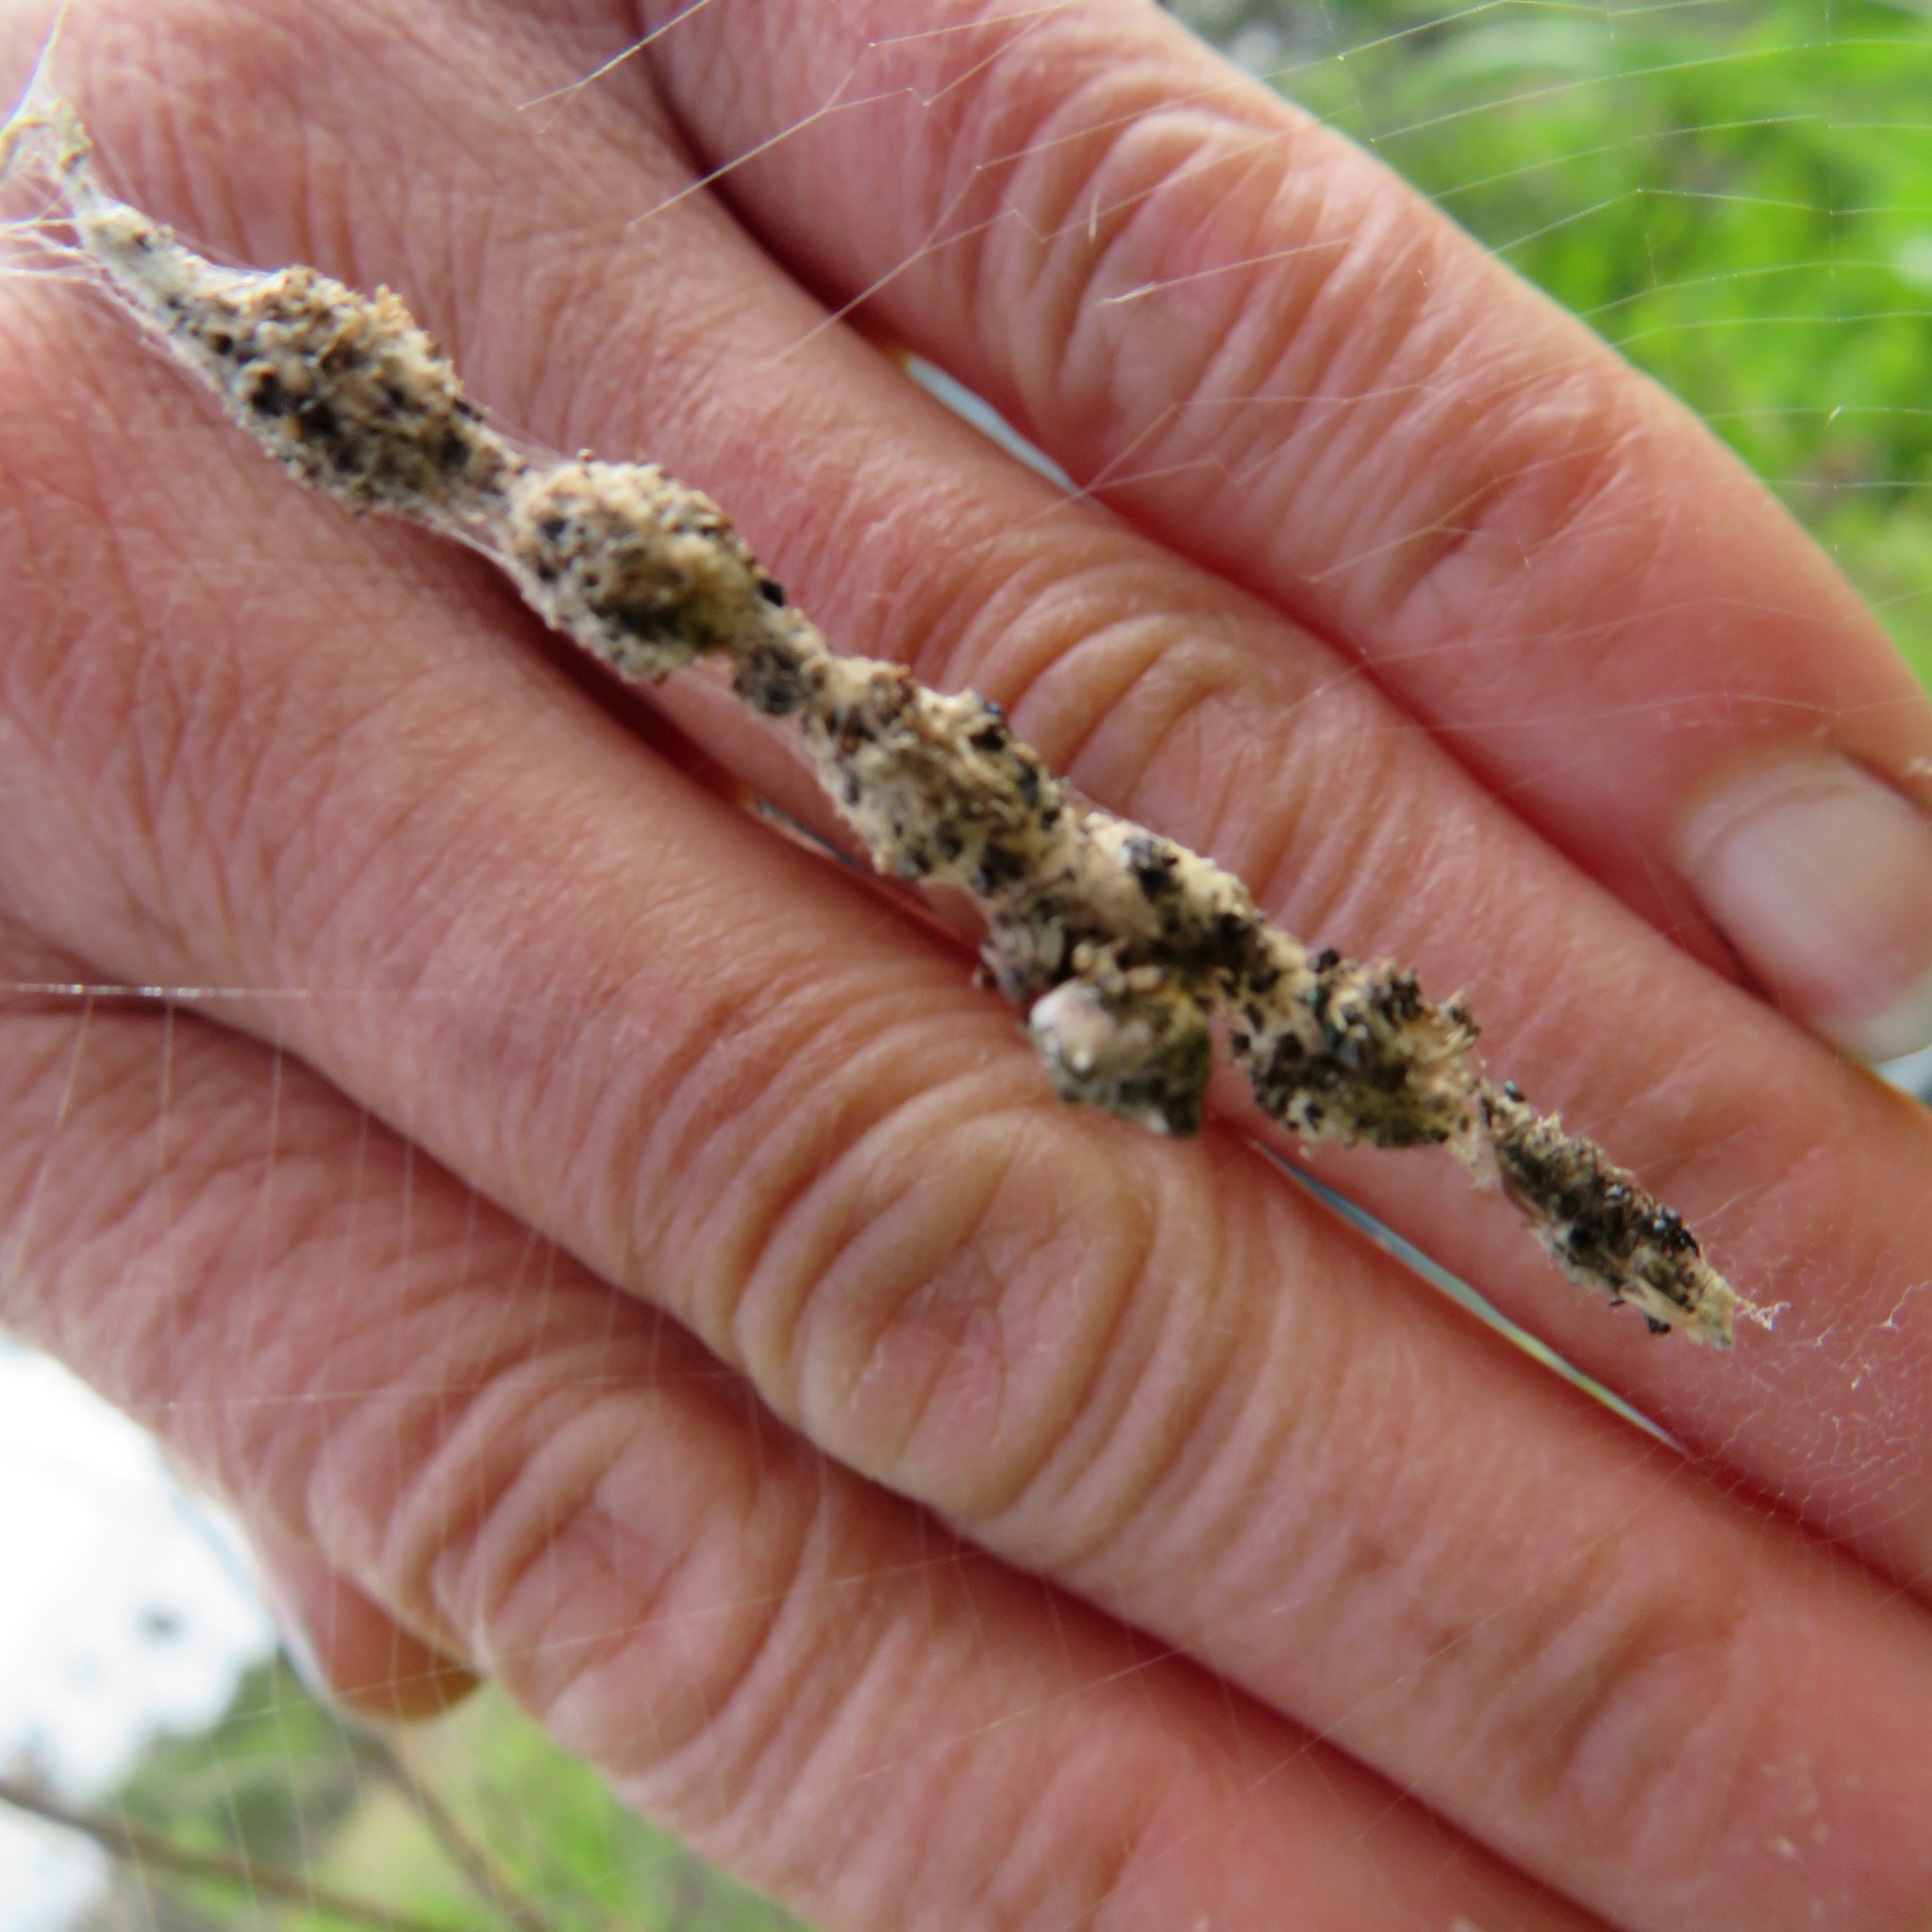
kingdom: Animalia
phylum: Arthropoda
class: Arachnida
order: Araneae
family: Araneidae
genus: Cyclosa
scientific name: Cyclosa turbinata
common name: Orb weavers
